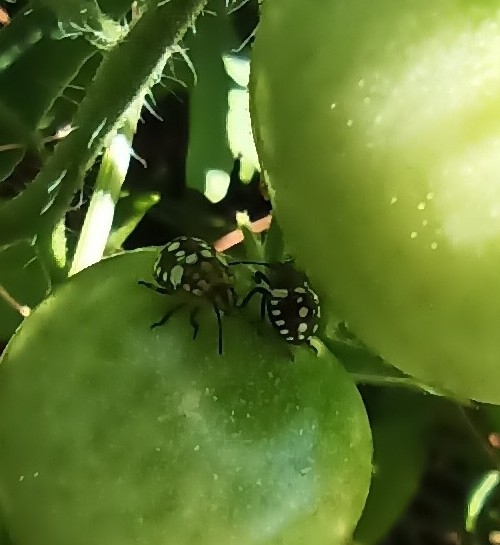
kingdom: Animalia
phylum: Arthropoda
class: Insecta
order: Hemiptera
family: Pentatomidae
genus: Nezara
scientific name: Nezara viridula
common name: Southern green stink bug
